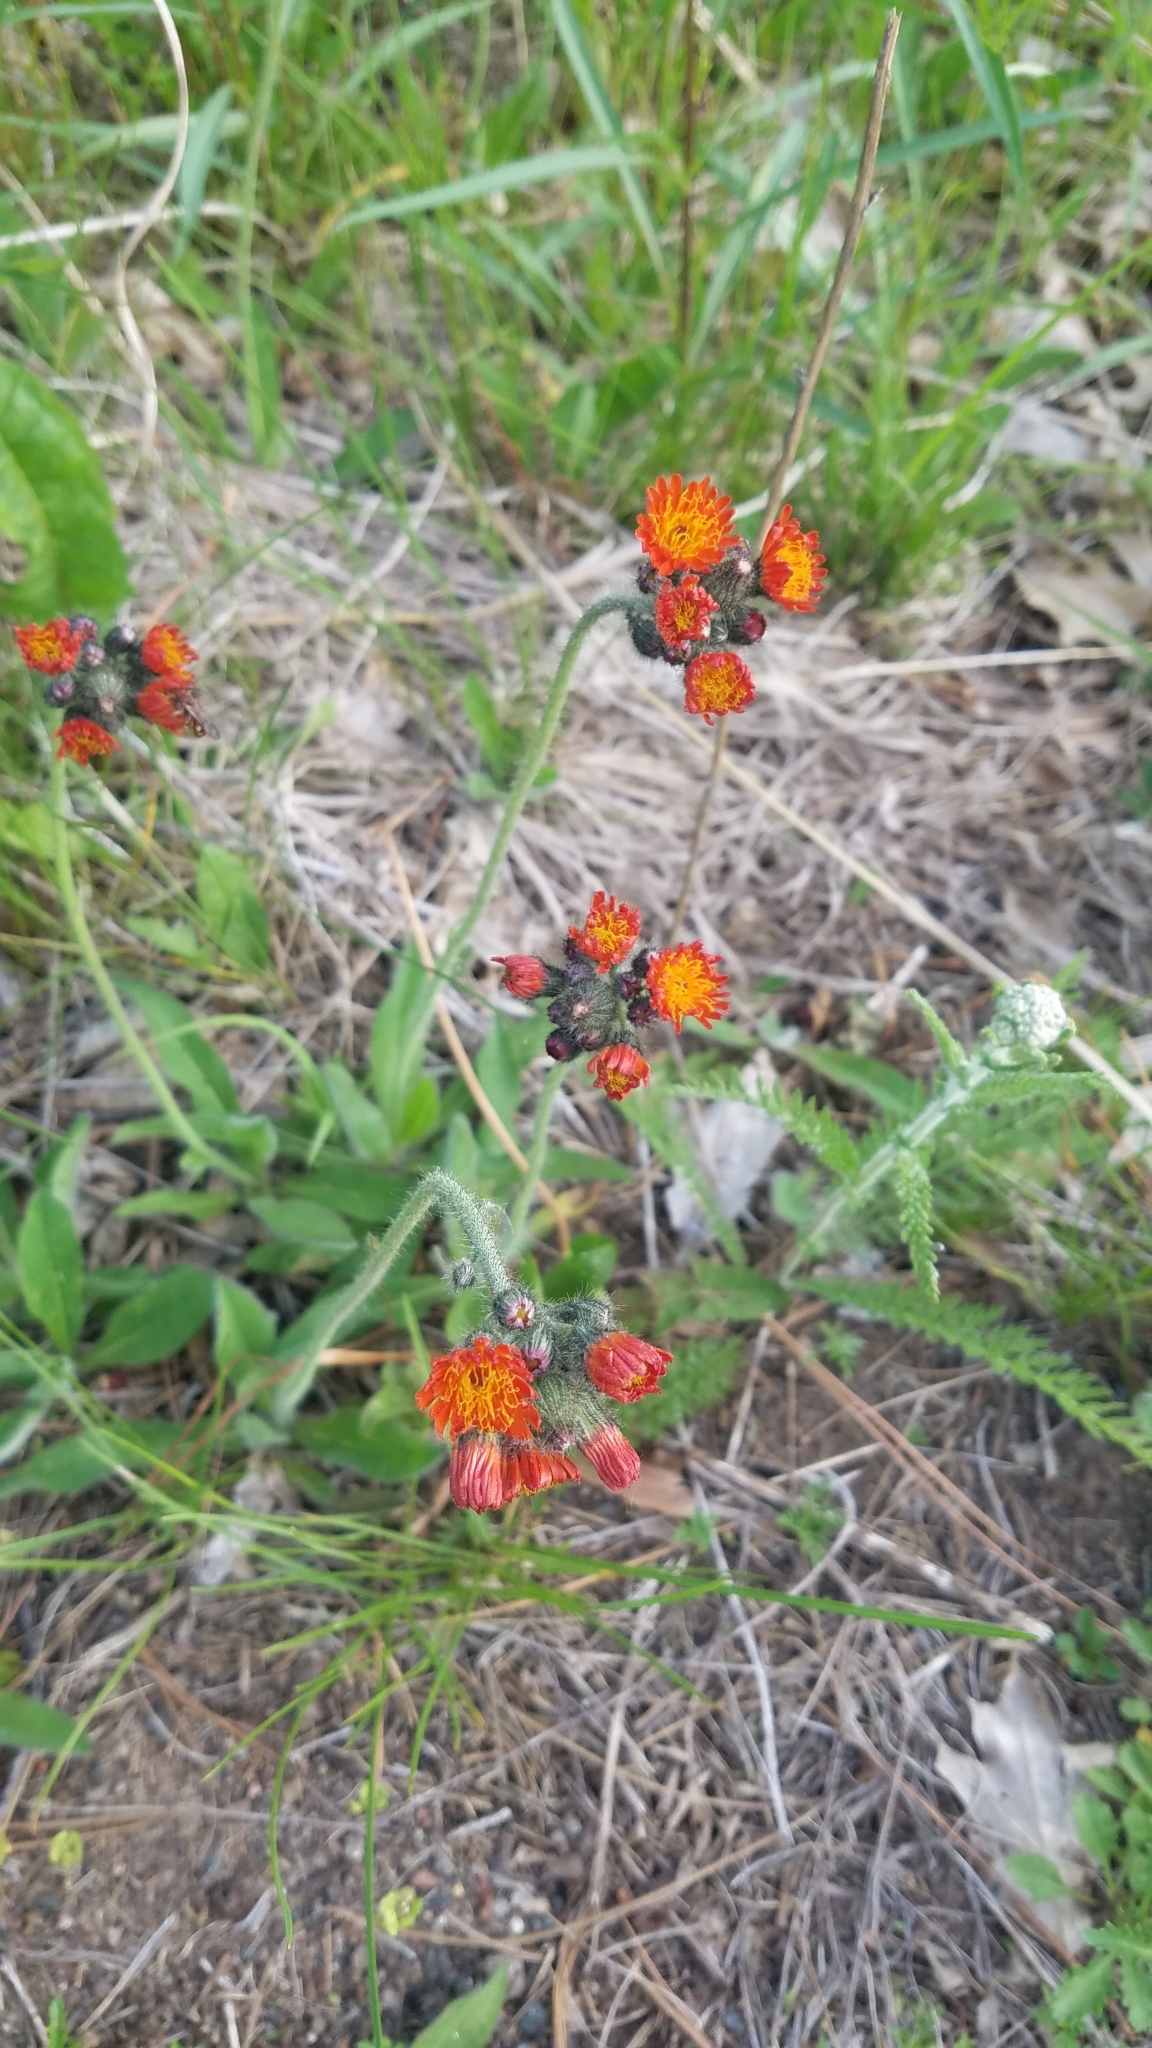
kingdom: Plantae
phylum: Tracheophyta
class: Magnoliopsida
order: Asterales
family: Asteraceae
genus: Pilosella
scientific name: Pilosella aurantiaca
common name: Fox-and-cubs
